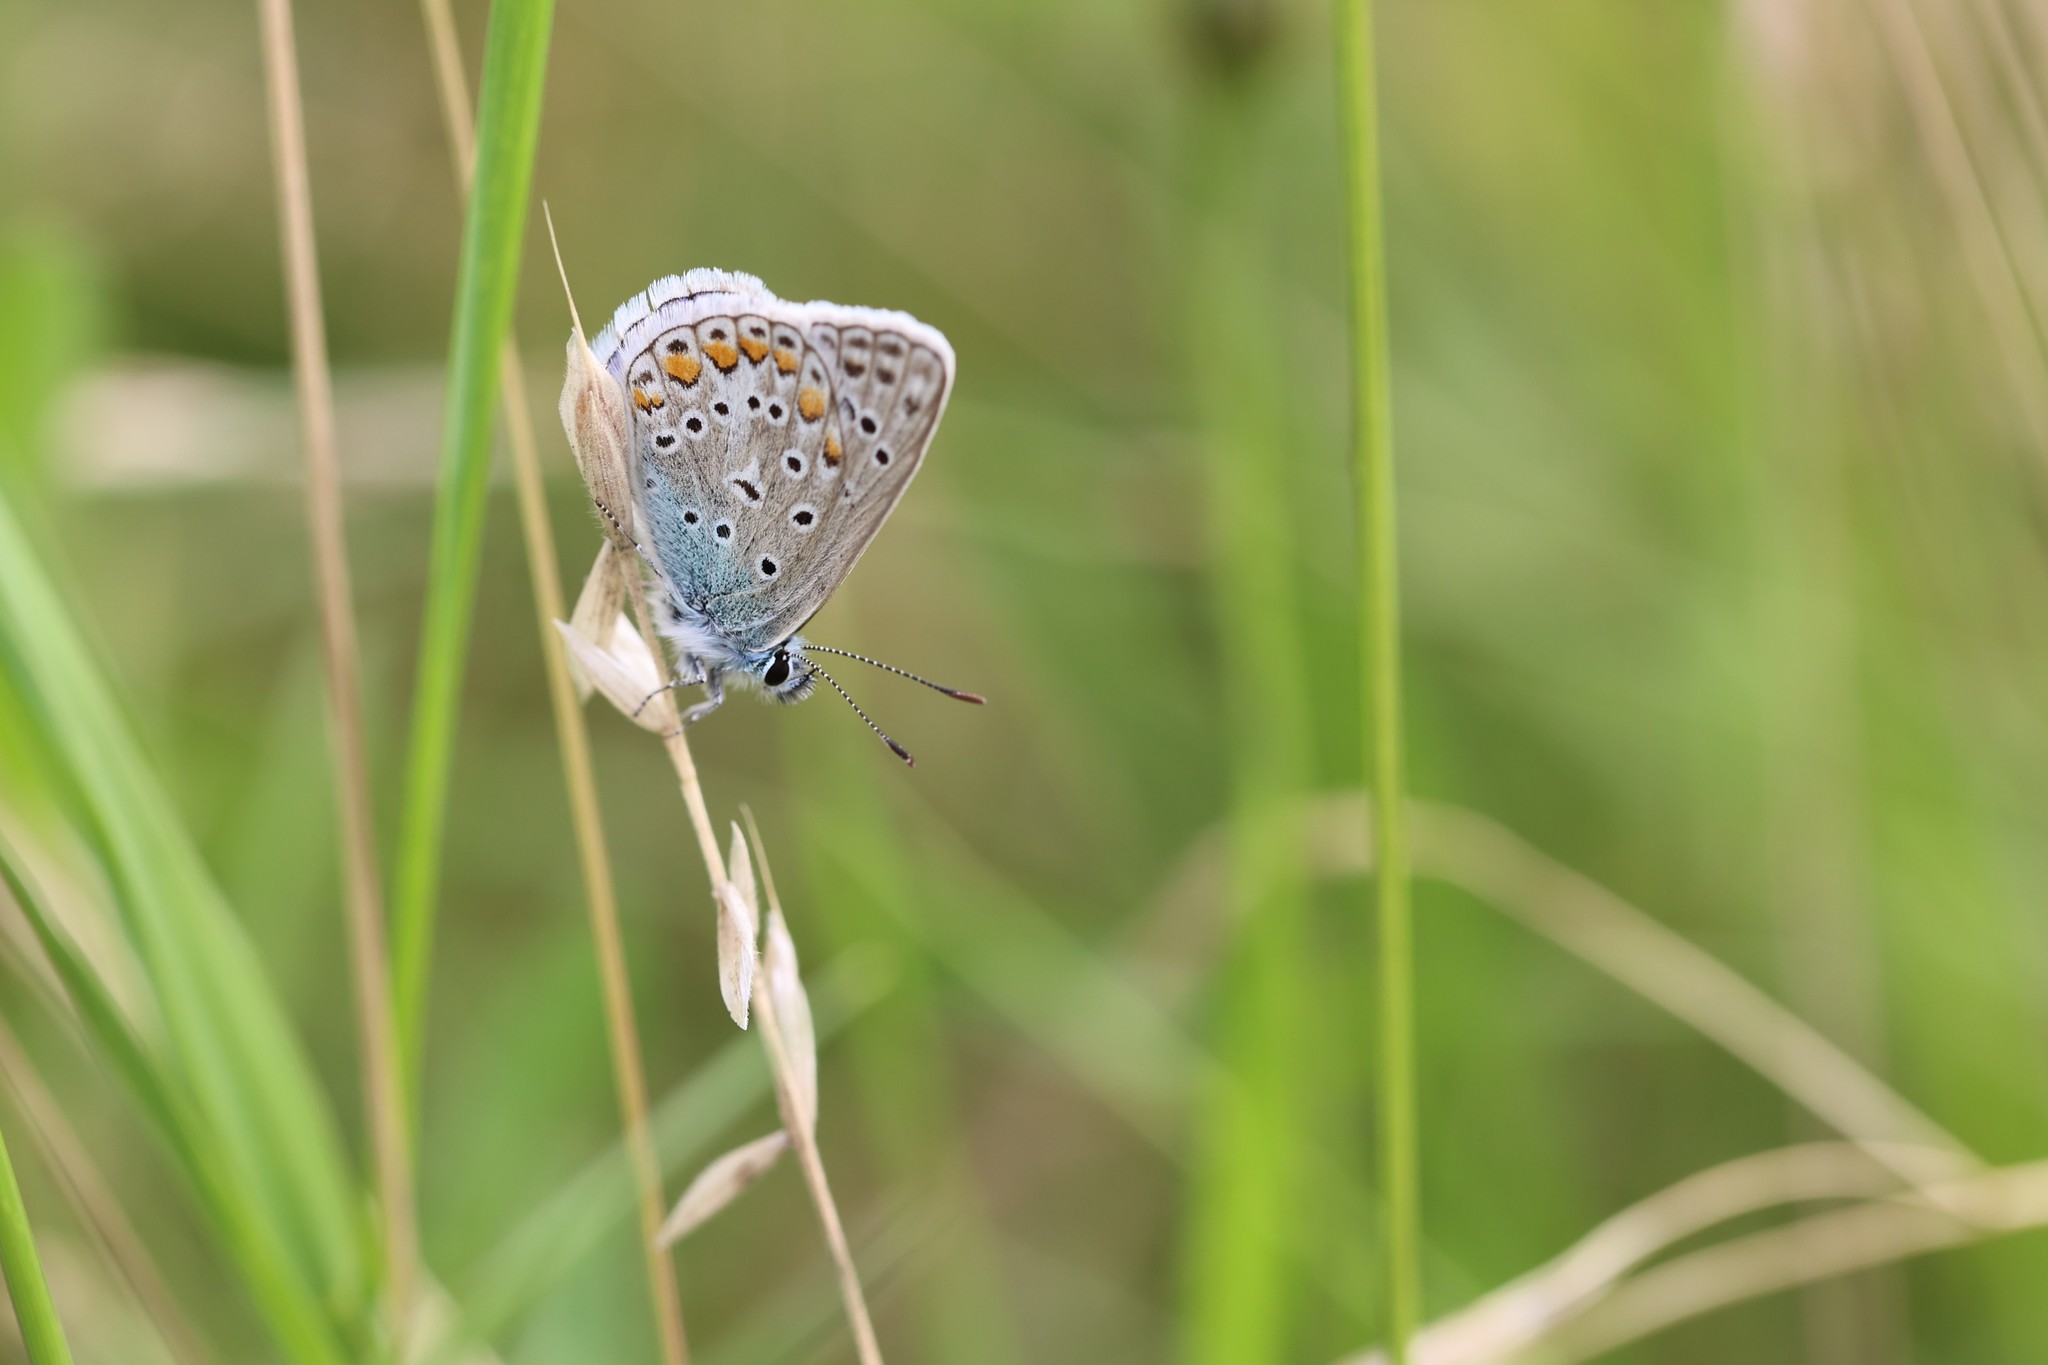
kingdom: Animalia
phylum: Arthropoda
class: Insecta
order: Lepidoptera
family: Lycaenidae
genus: Polyommatus
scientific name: Polyommatus icarus
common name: Common blue
